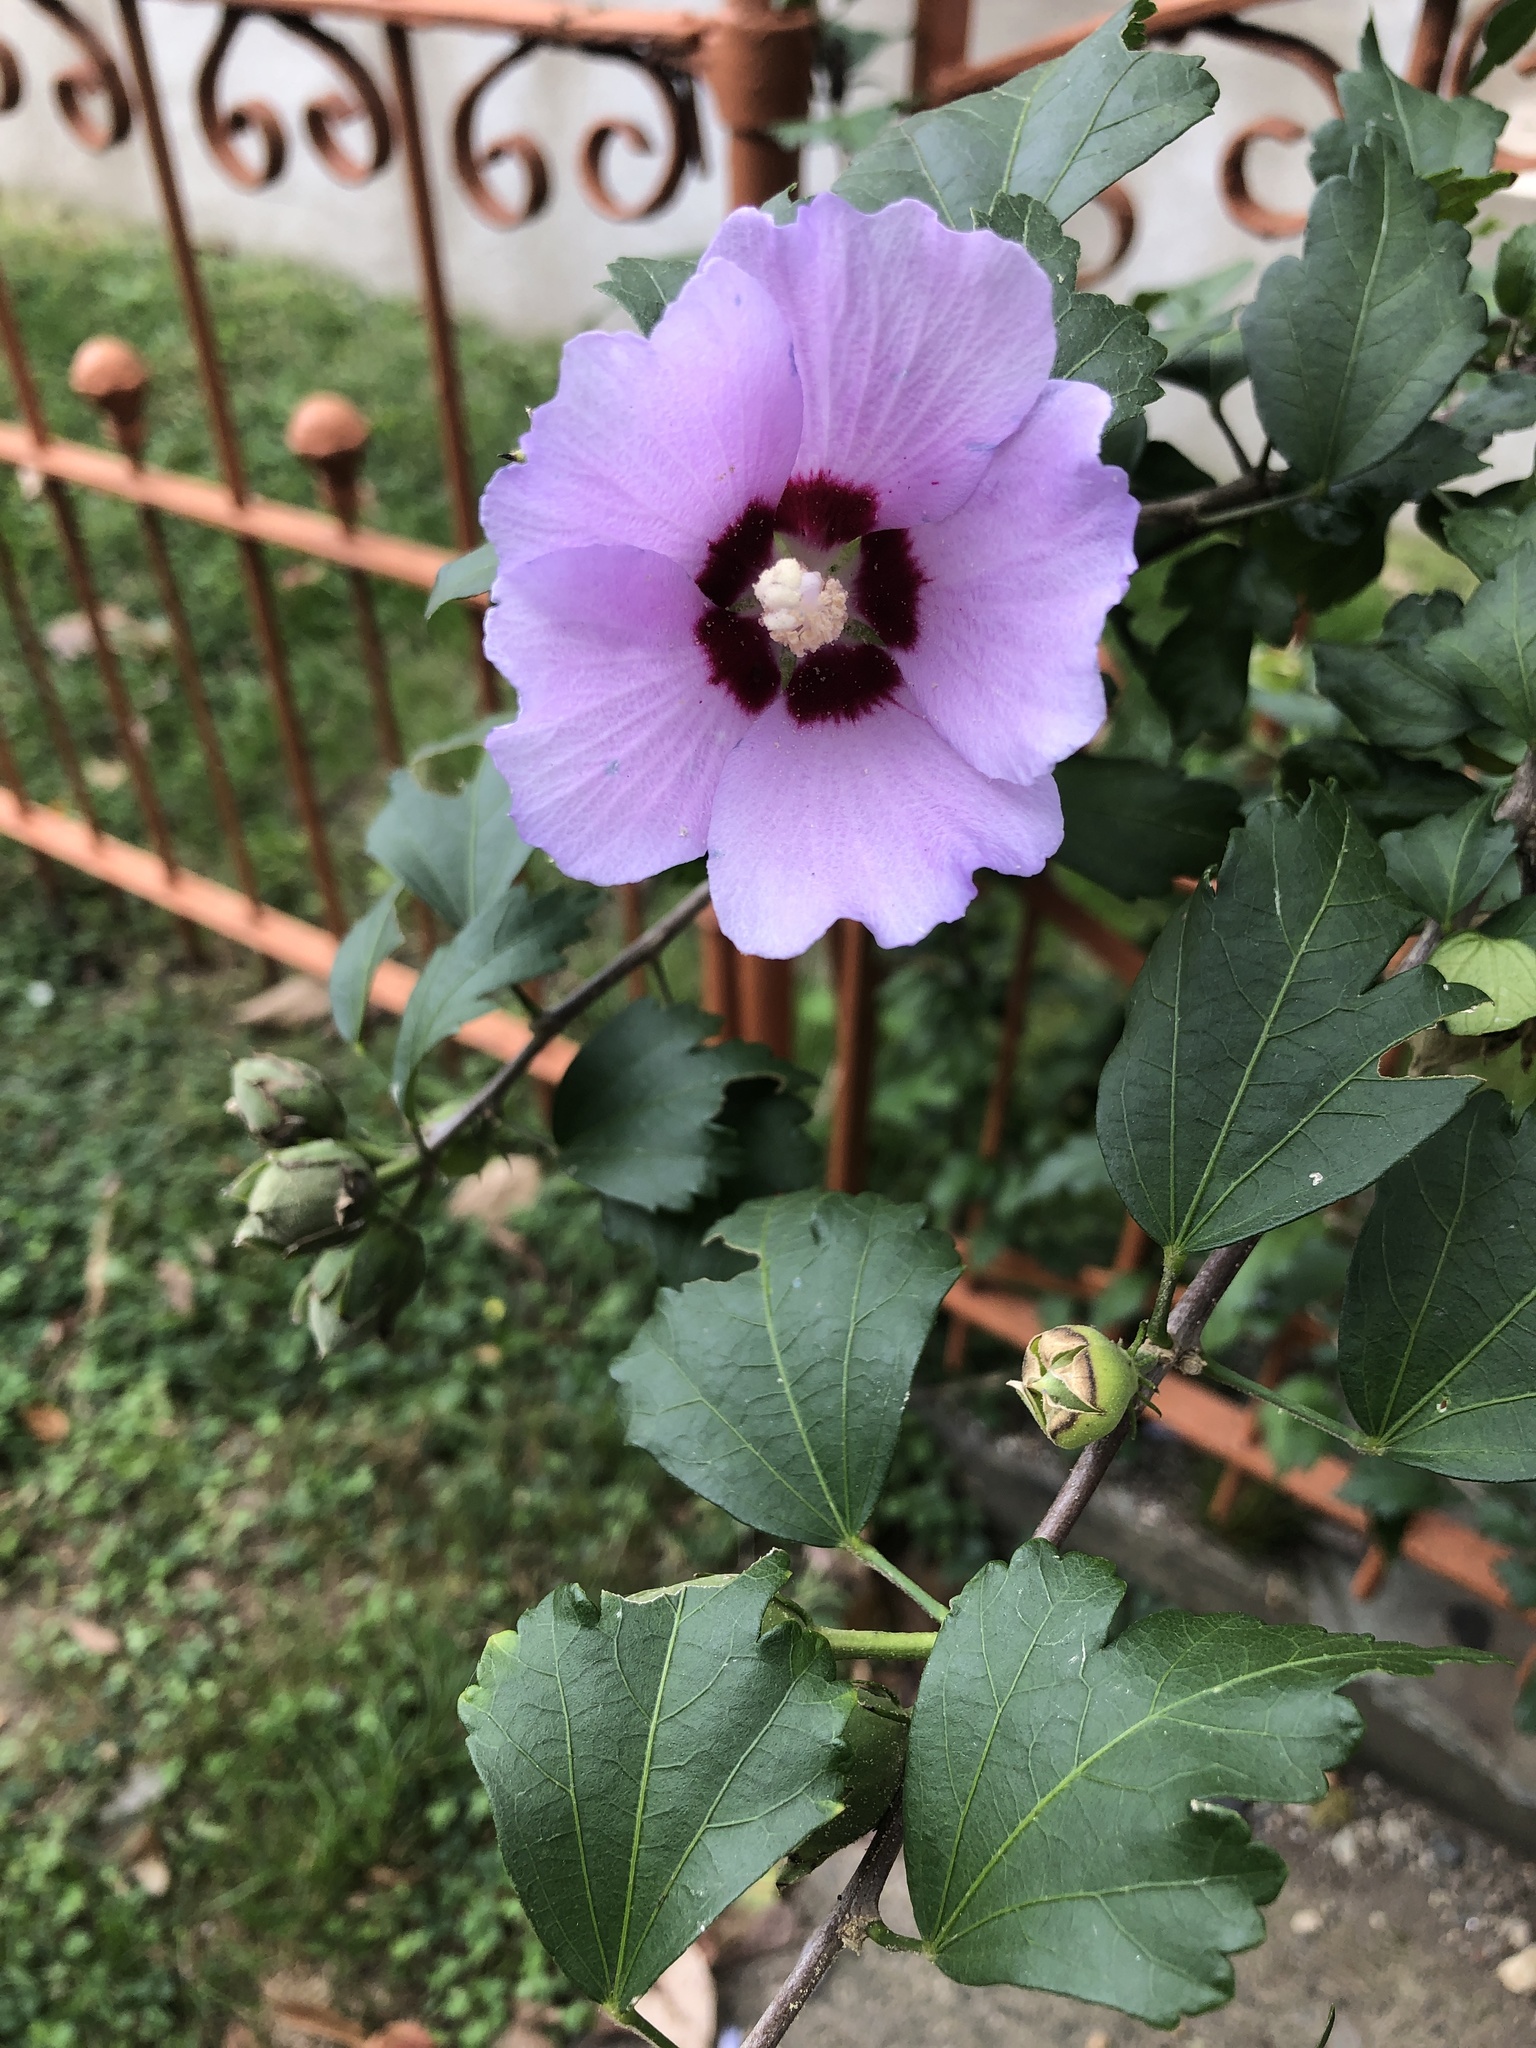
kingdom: Plantae
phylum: Tracheophyta
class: Magnoliopsida
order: Malvales
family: Malvaceae
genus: Hibiscus
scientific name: Hibiscus syriacus
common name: Syrian ketmia
